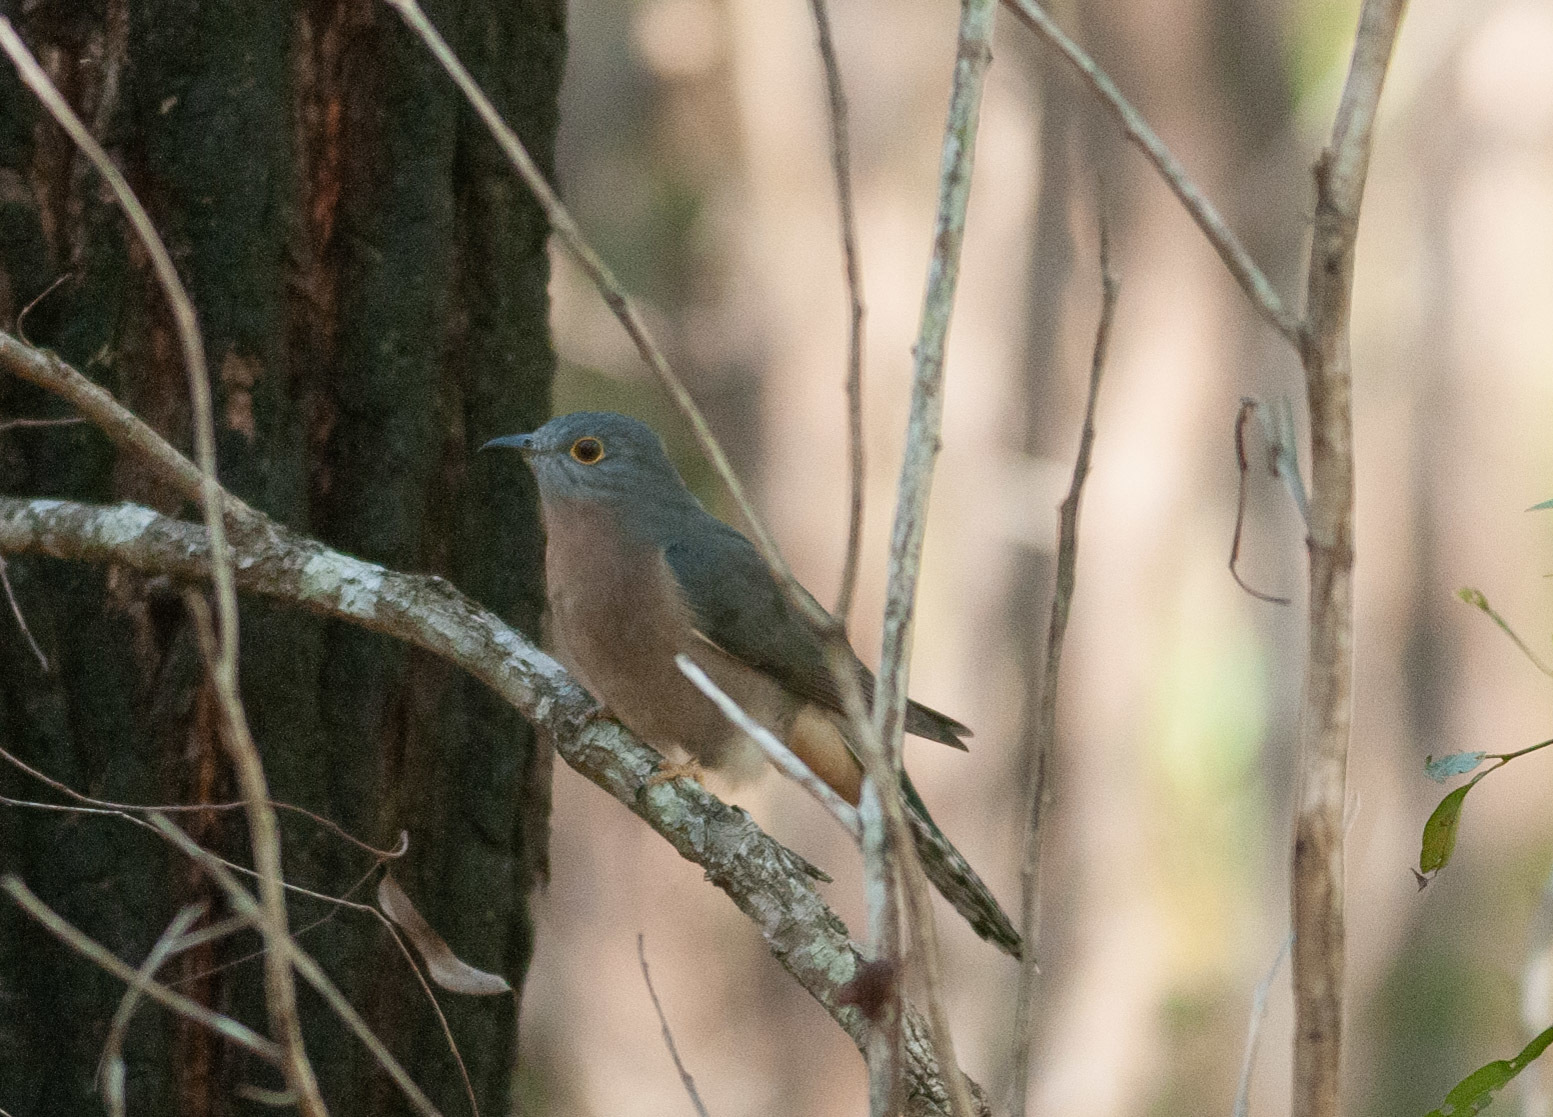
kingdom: Animalia
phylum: Chordata
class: Aves
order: Cuculiformes
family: Cuculidae
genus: Cacomantis
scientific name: Cacomantis flabelliformis
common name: Fan-tailed cuckoo
